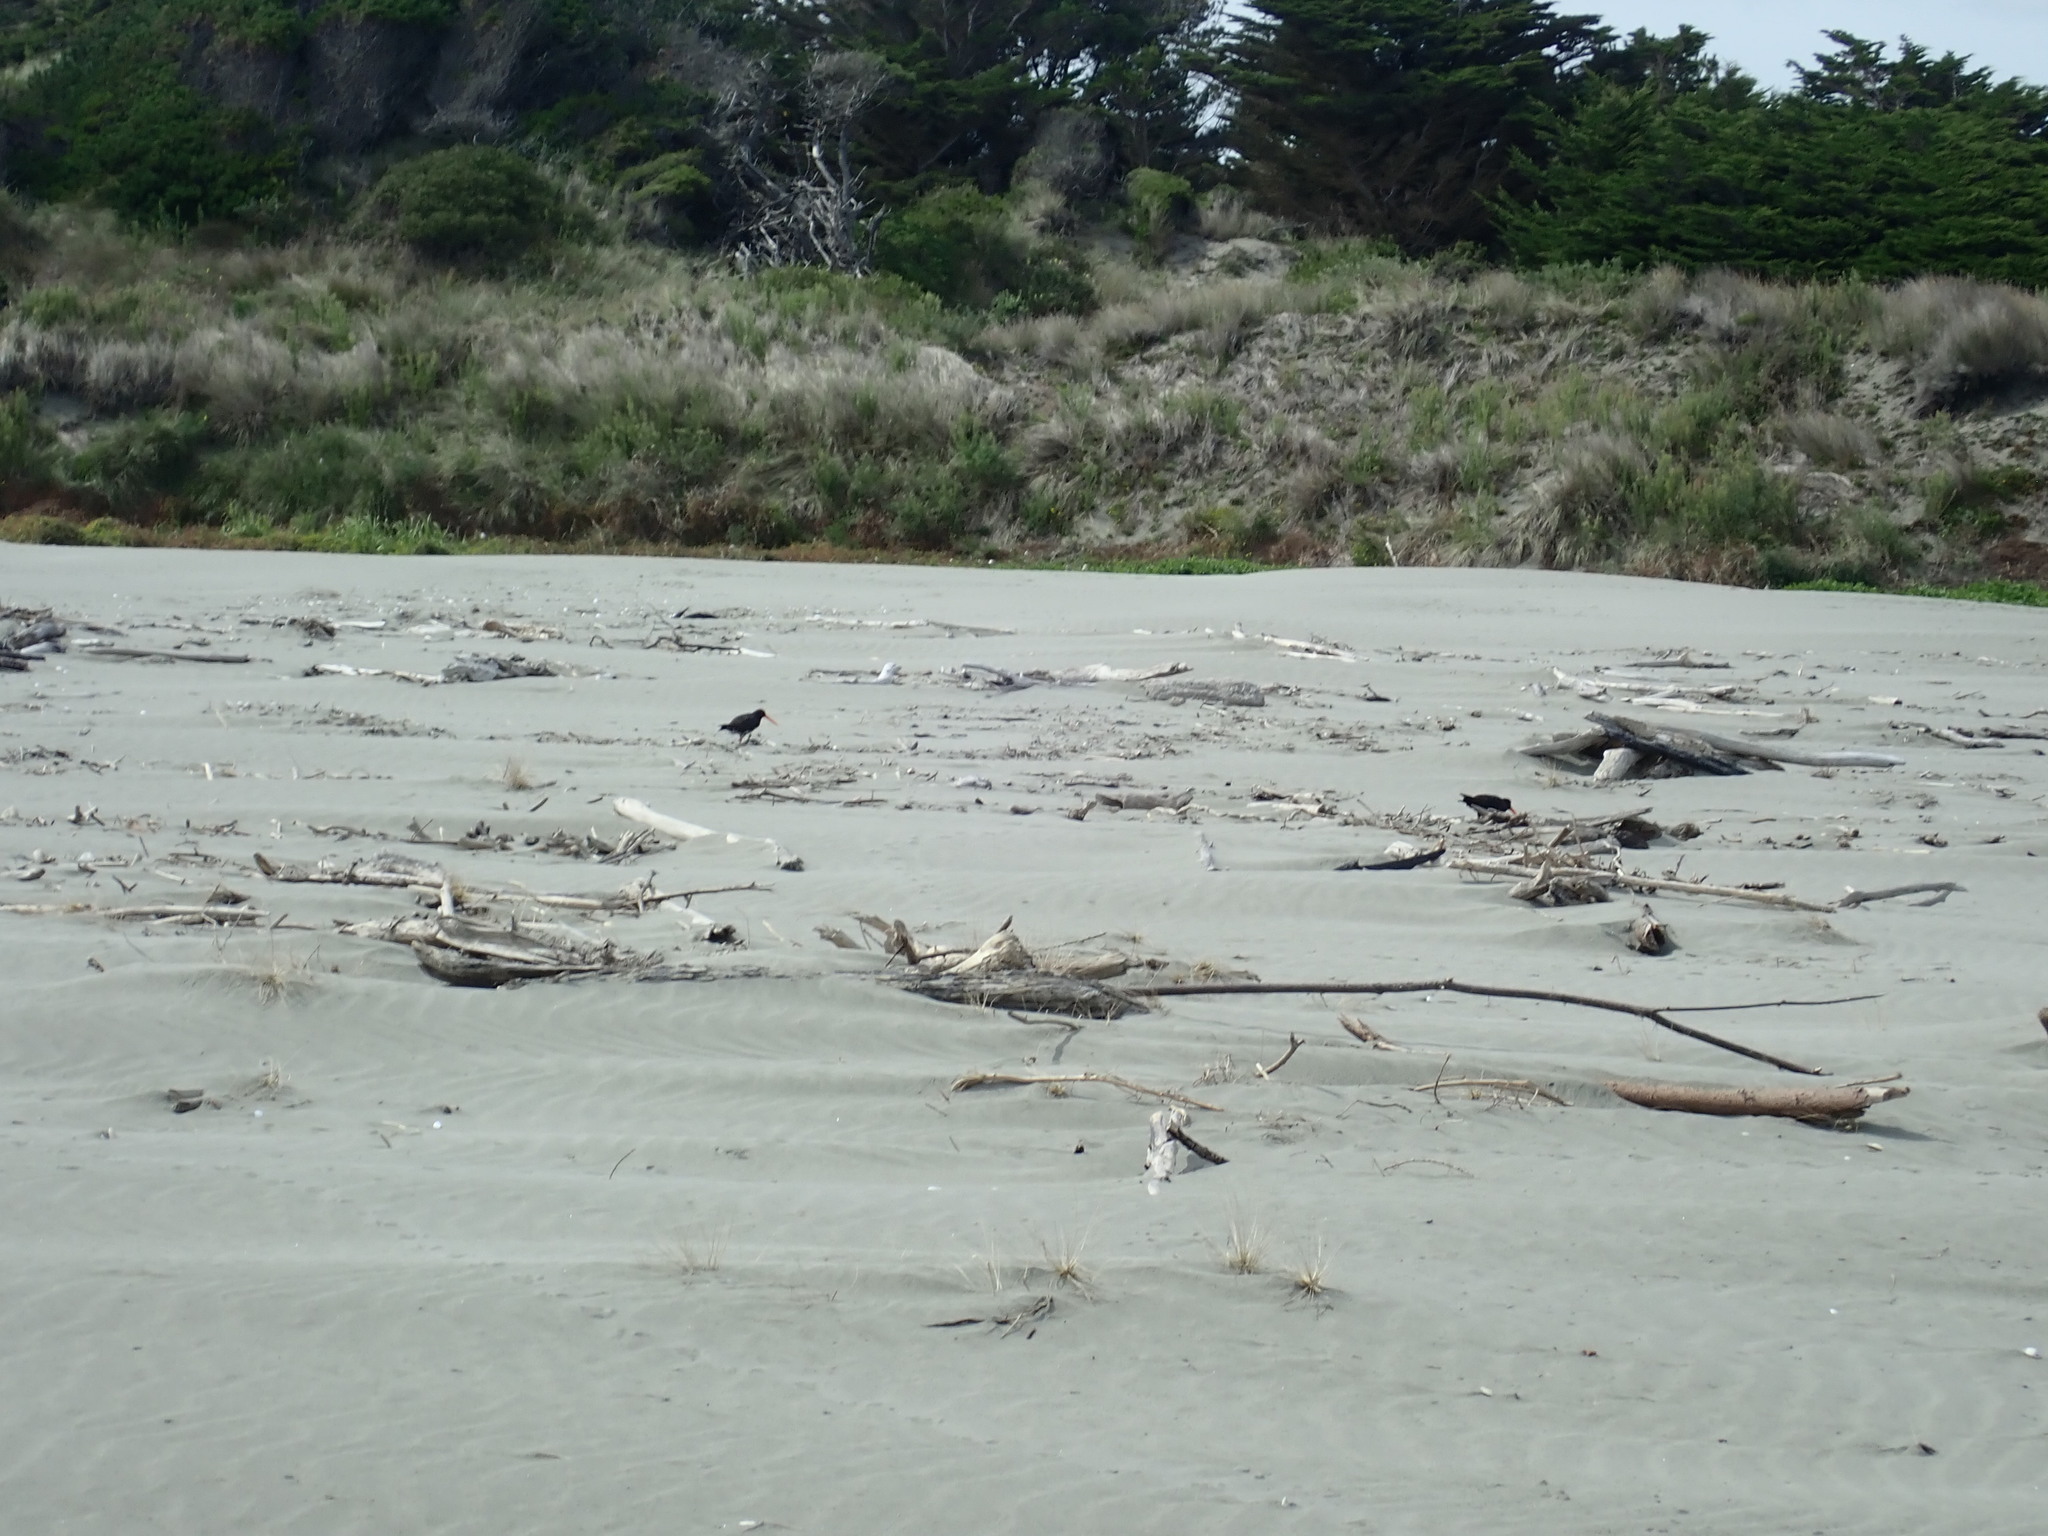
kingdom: Animalia
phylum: Chordata
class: Aves
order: Charadriiformes
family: Haematopodidae
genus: Haematopus
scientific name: Haematopus unicolor
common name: Variable oystercatcher
